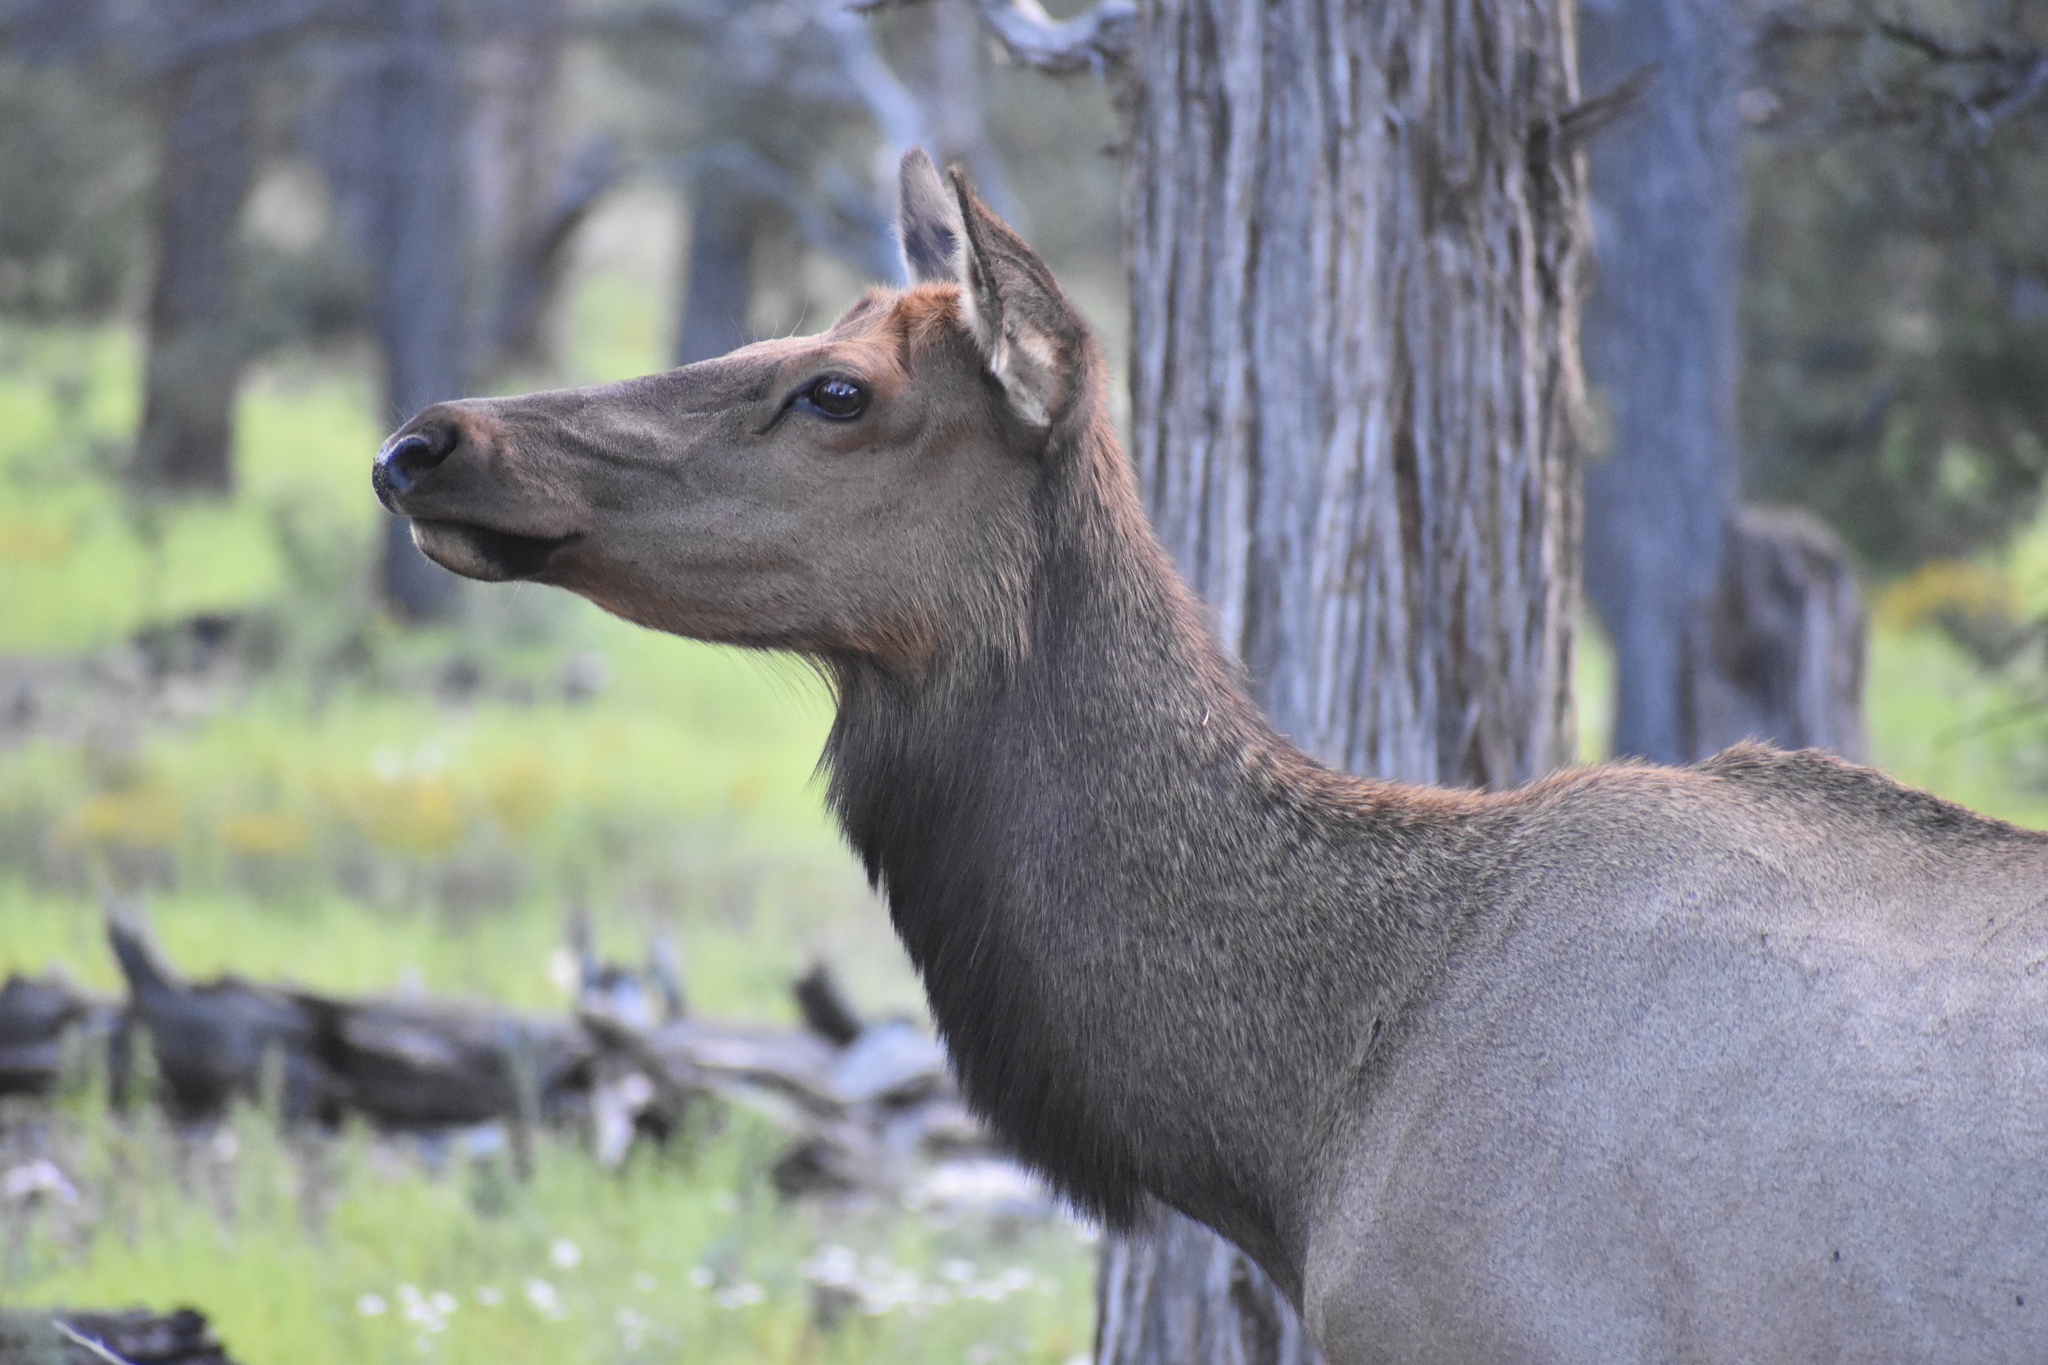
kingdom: Animalia
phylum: Chordata
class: Mammalia
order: Artiodactyla
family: Cervidae
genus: Cervus
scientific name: Cervus elaphus
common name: Red deer
